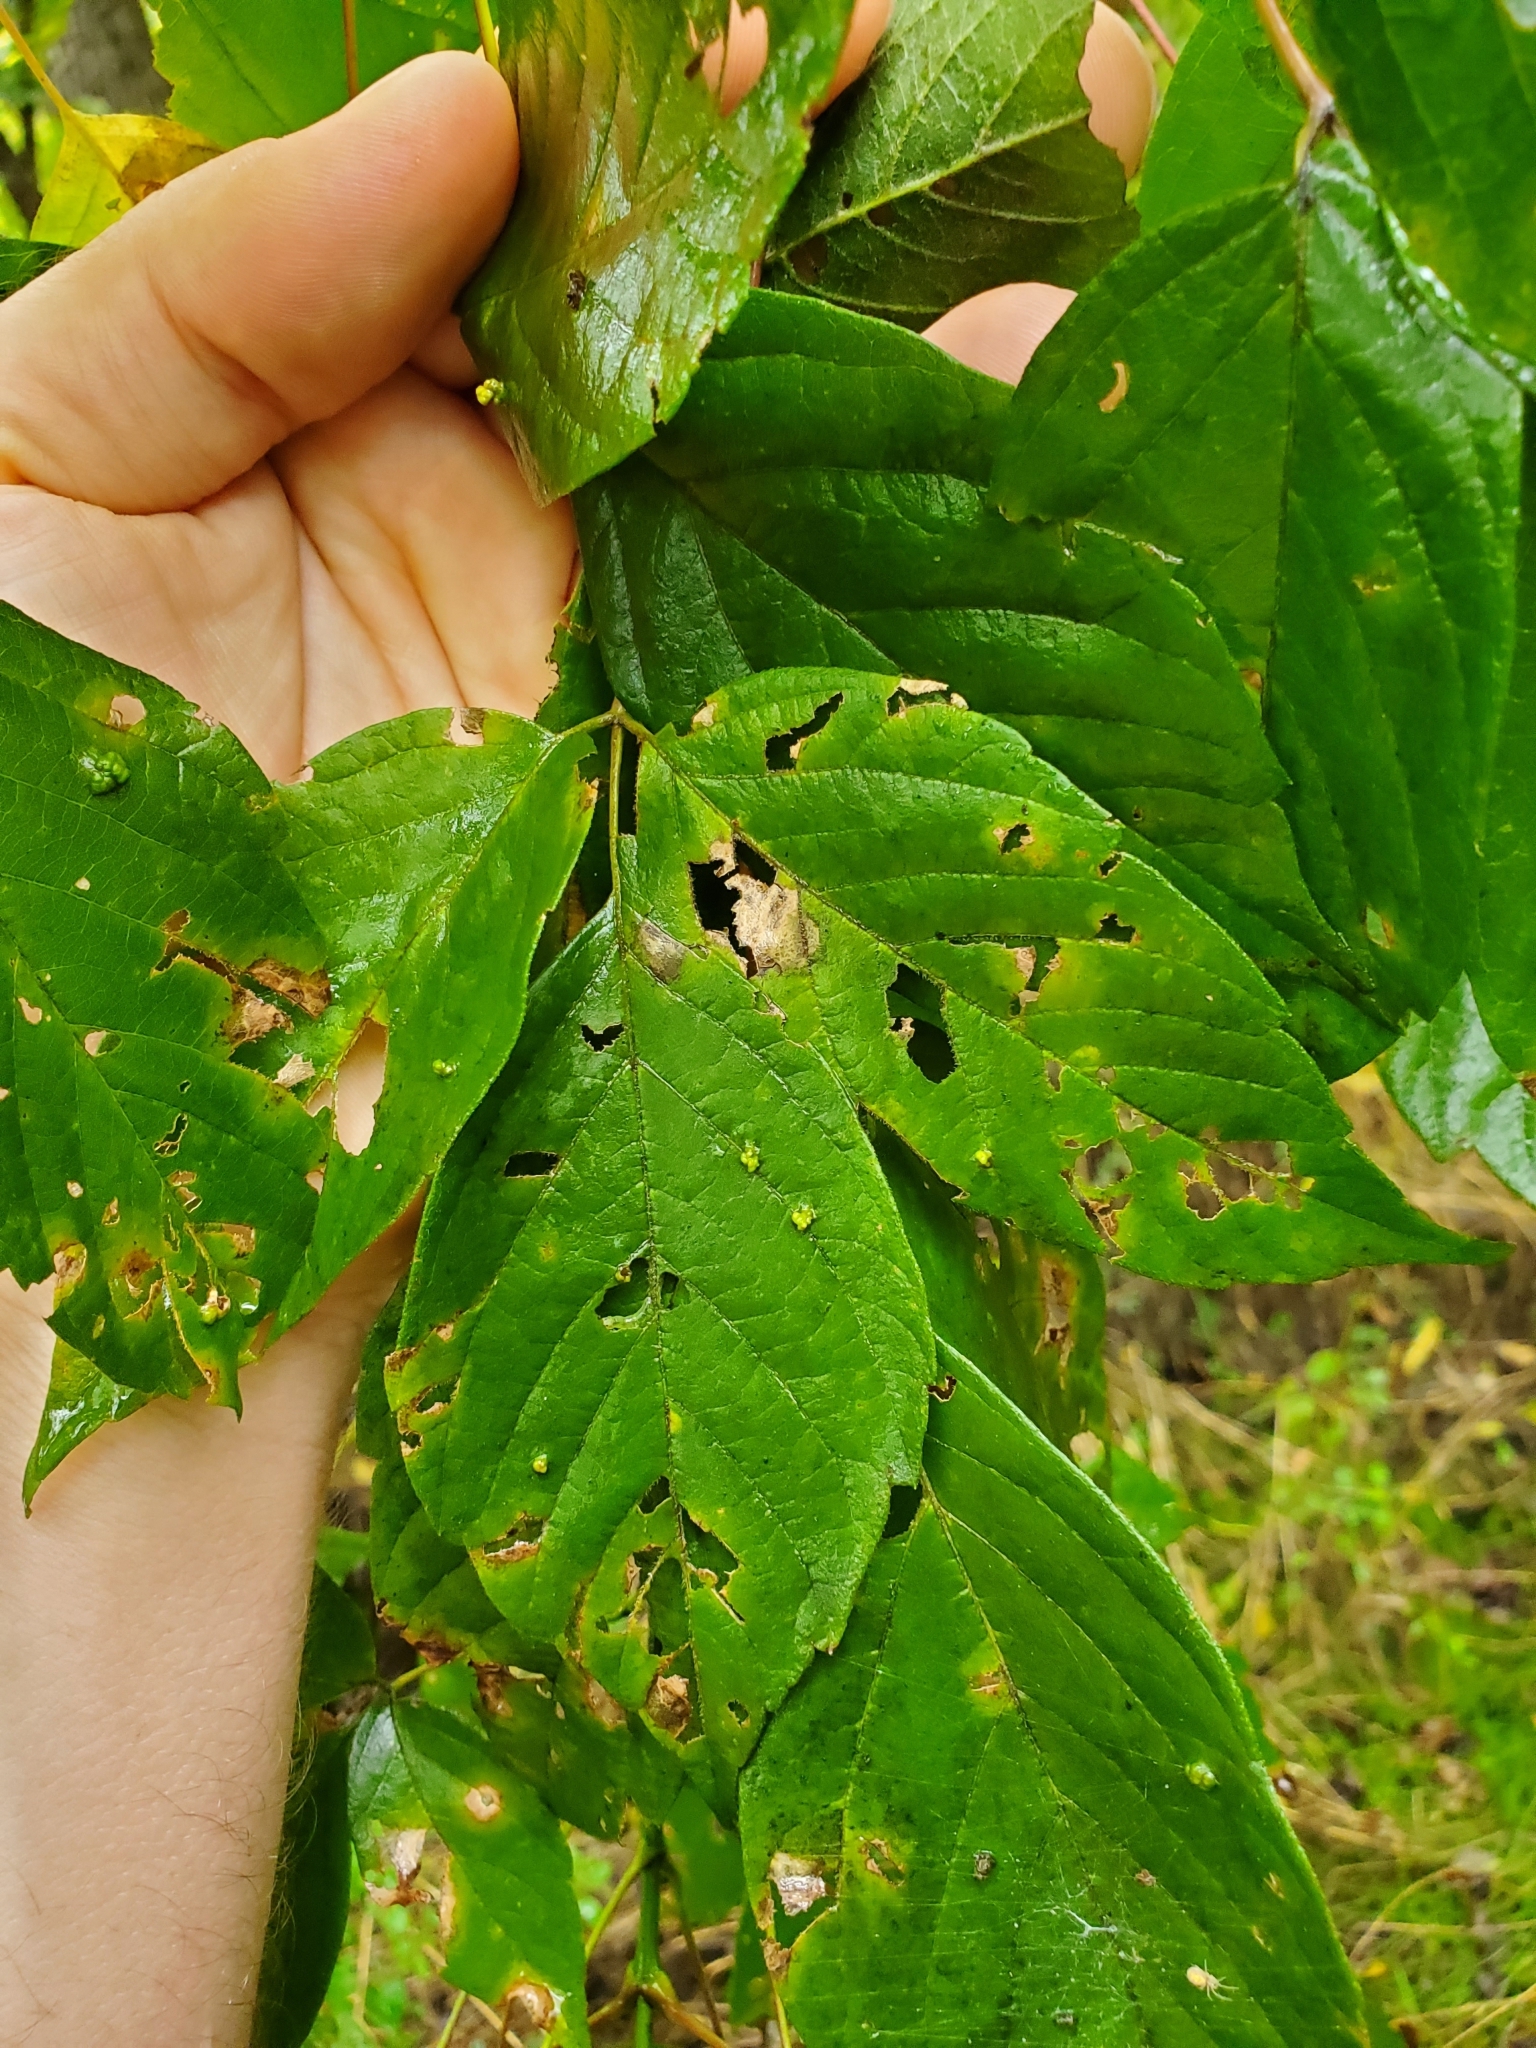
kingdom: Animalia
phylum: Arthropoda
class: Arachnida
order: Trombidiformes
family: Eriophyidae
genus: Aceria
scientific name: Aceria
